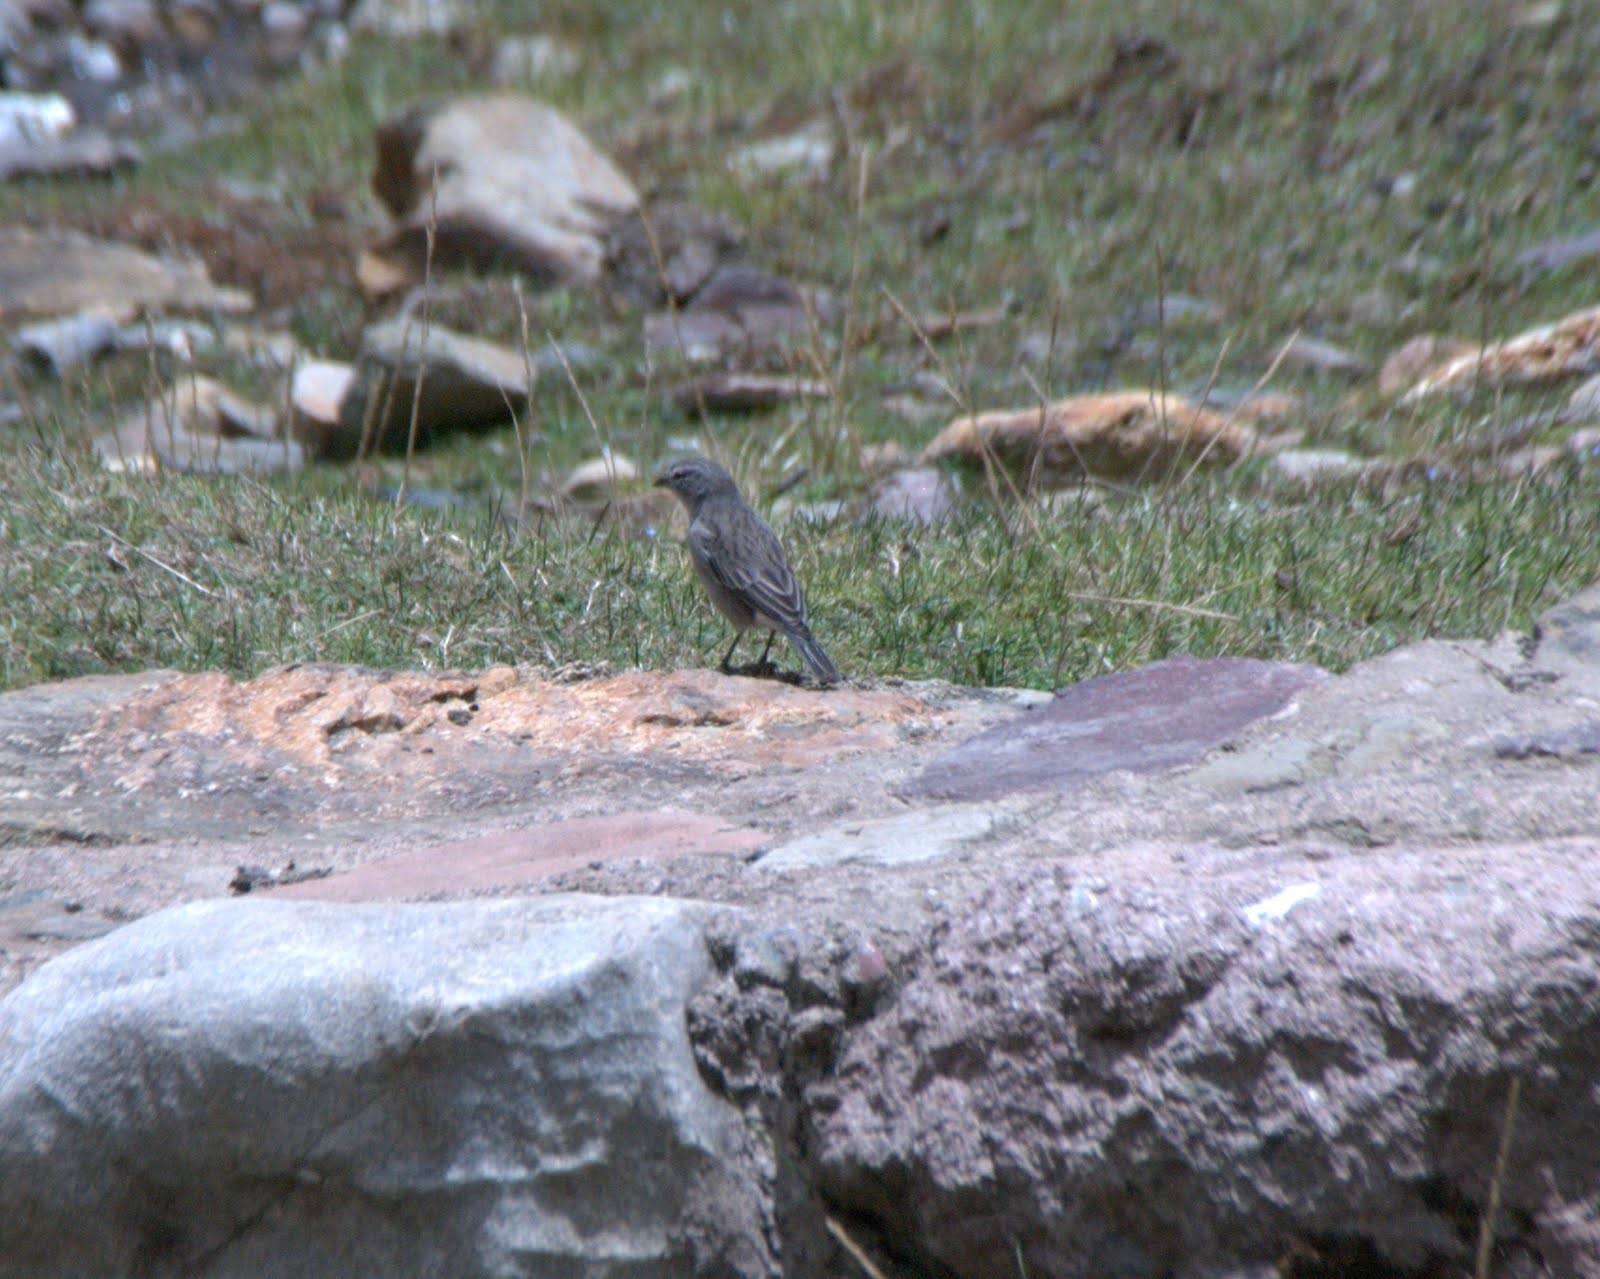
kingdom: Animalia
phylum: Chordata
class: Aves
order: Passeriformes
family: Thraupidae
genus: Geospizopsis
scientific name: Geospizopsis plebejus
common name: Ash-breasted sierra-finch
